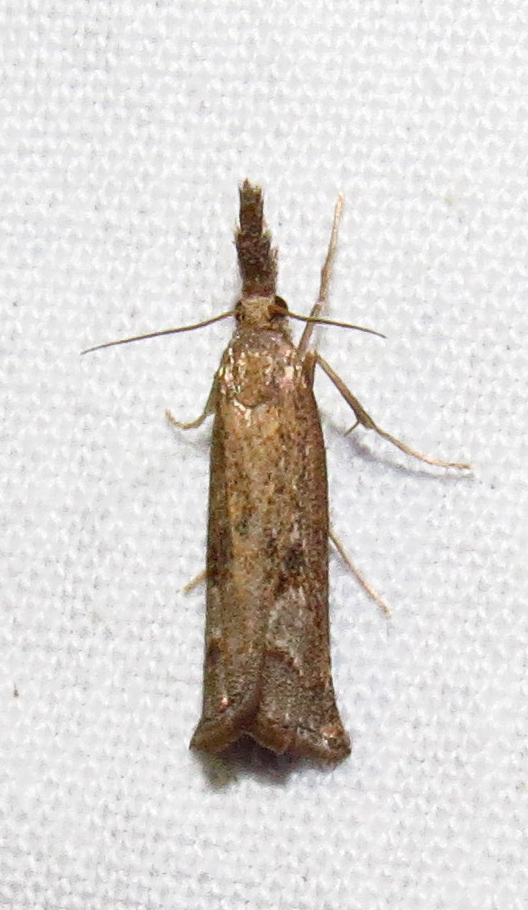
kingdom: Animalia
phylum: Arthropoda
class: Insecta
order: Lepidoptera
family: Crambidae
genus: Neodactria
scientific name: Neodactria zeellus
